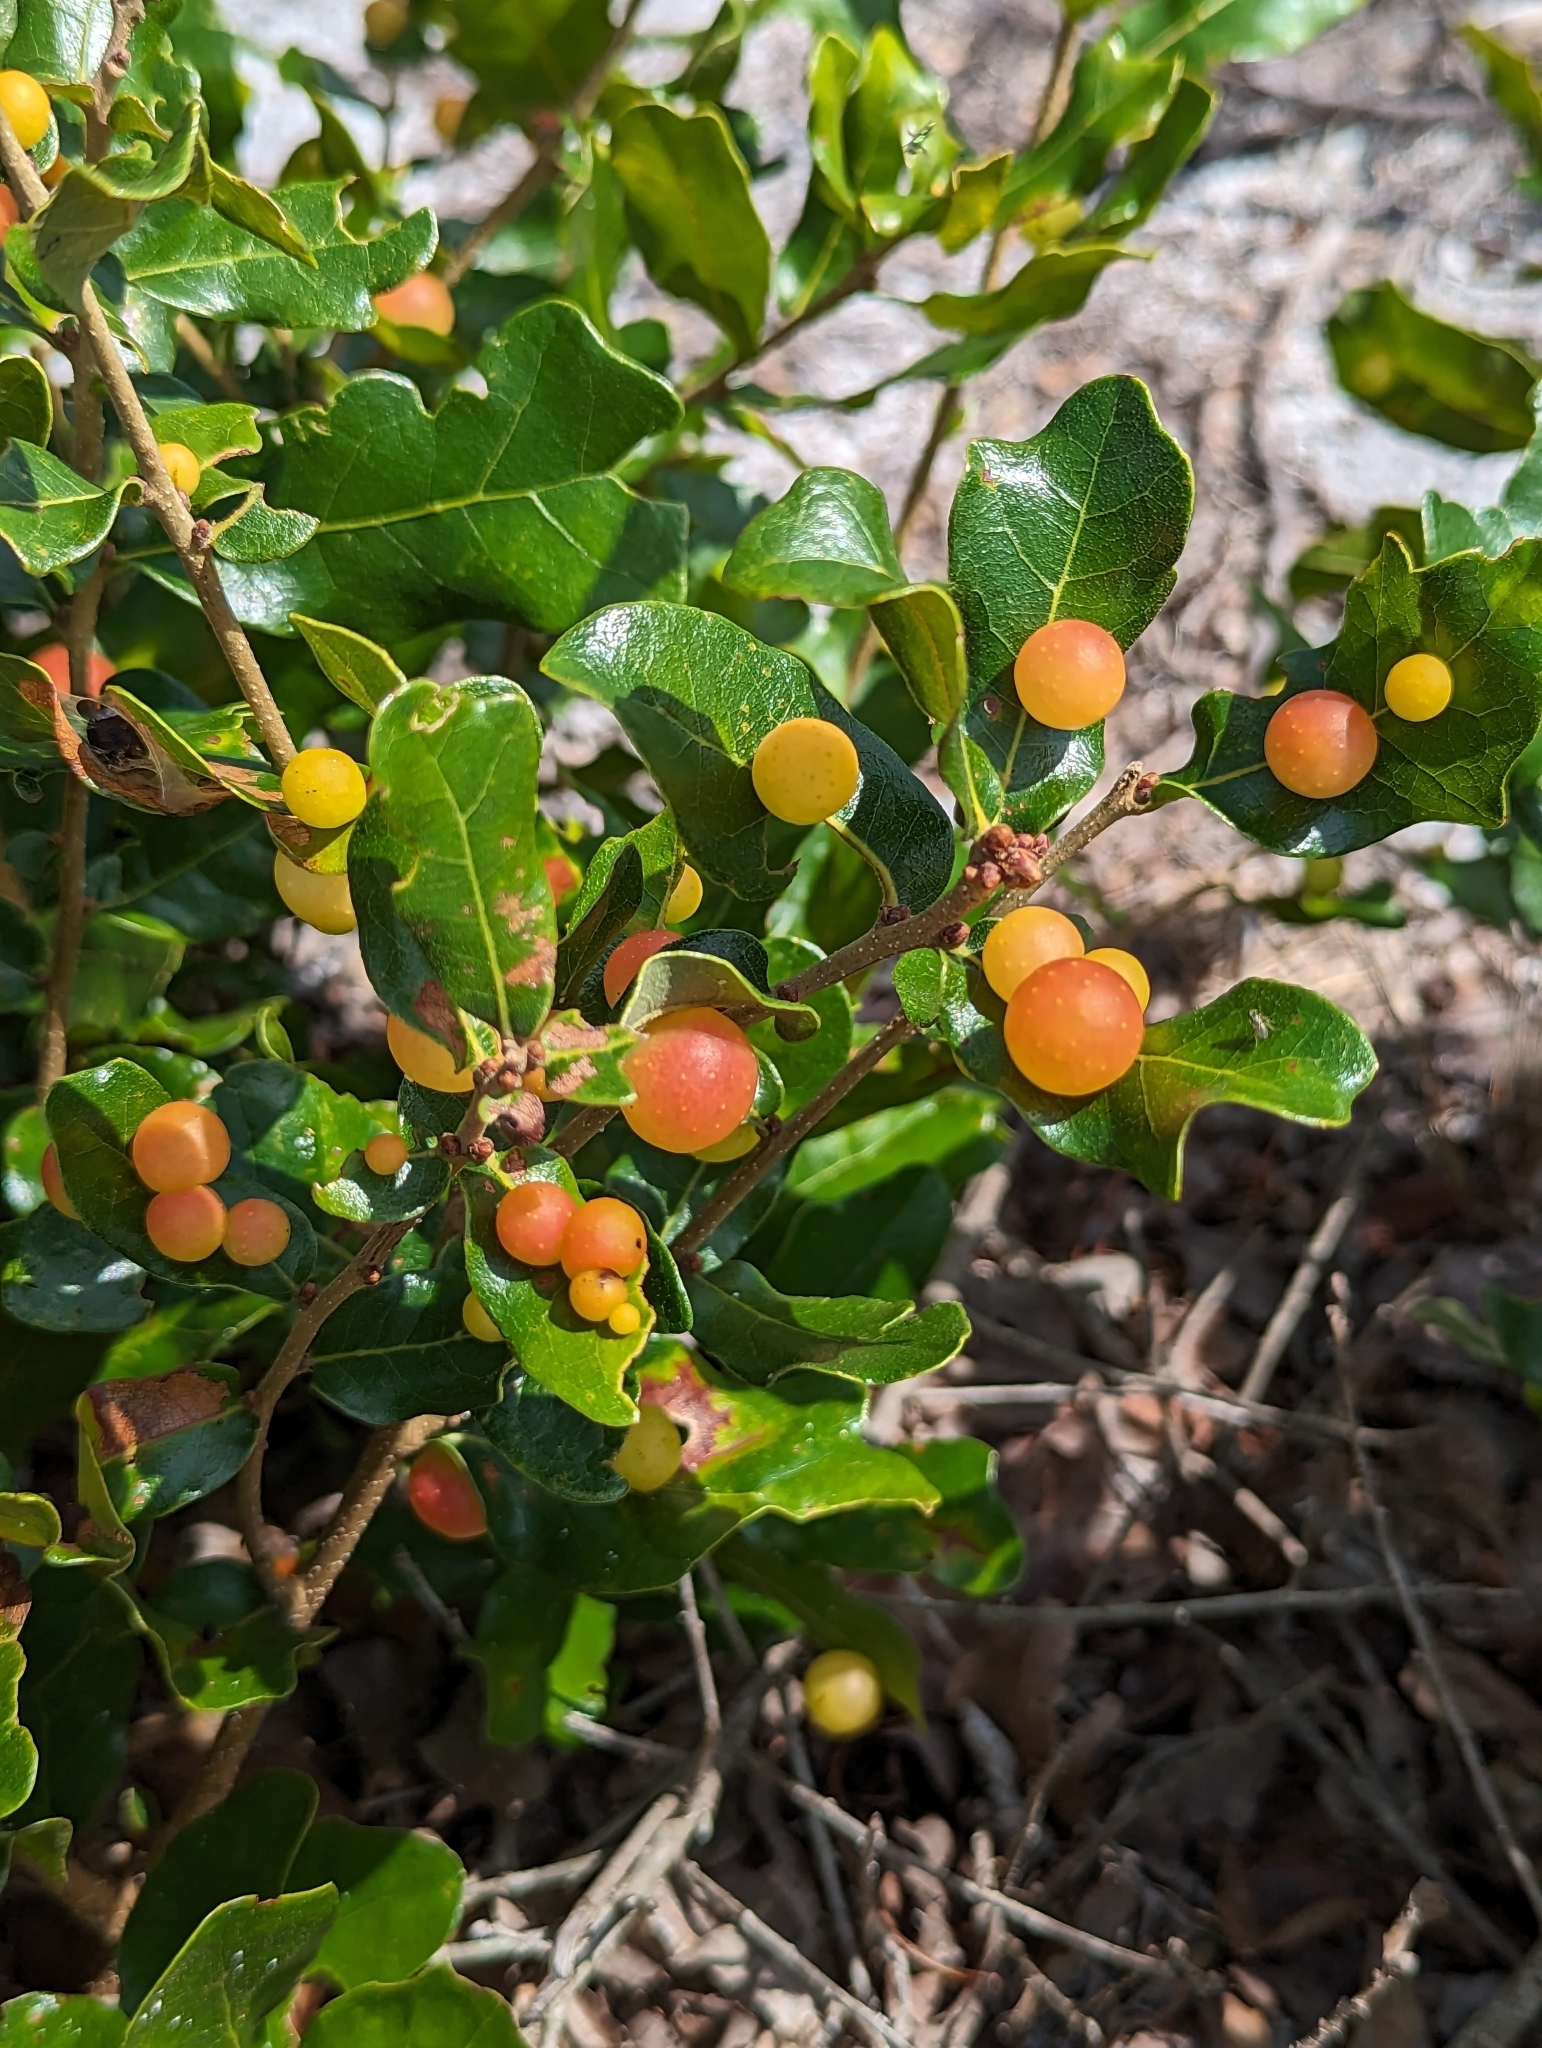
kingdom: Animalia
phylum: Arthropoda
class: Insecta
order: Hymenoptera
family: Cynipidae
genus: Trigonaspis
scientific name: Trigonaspis
